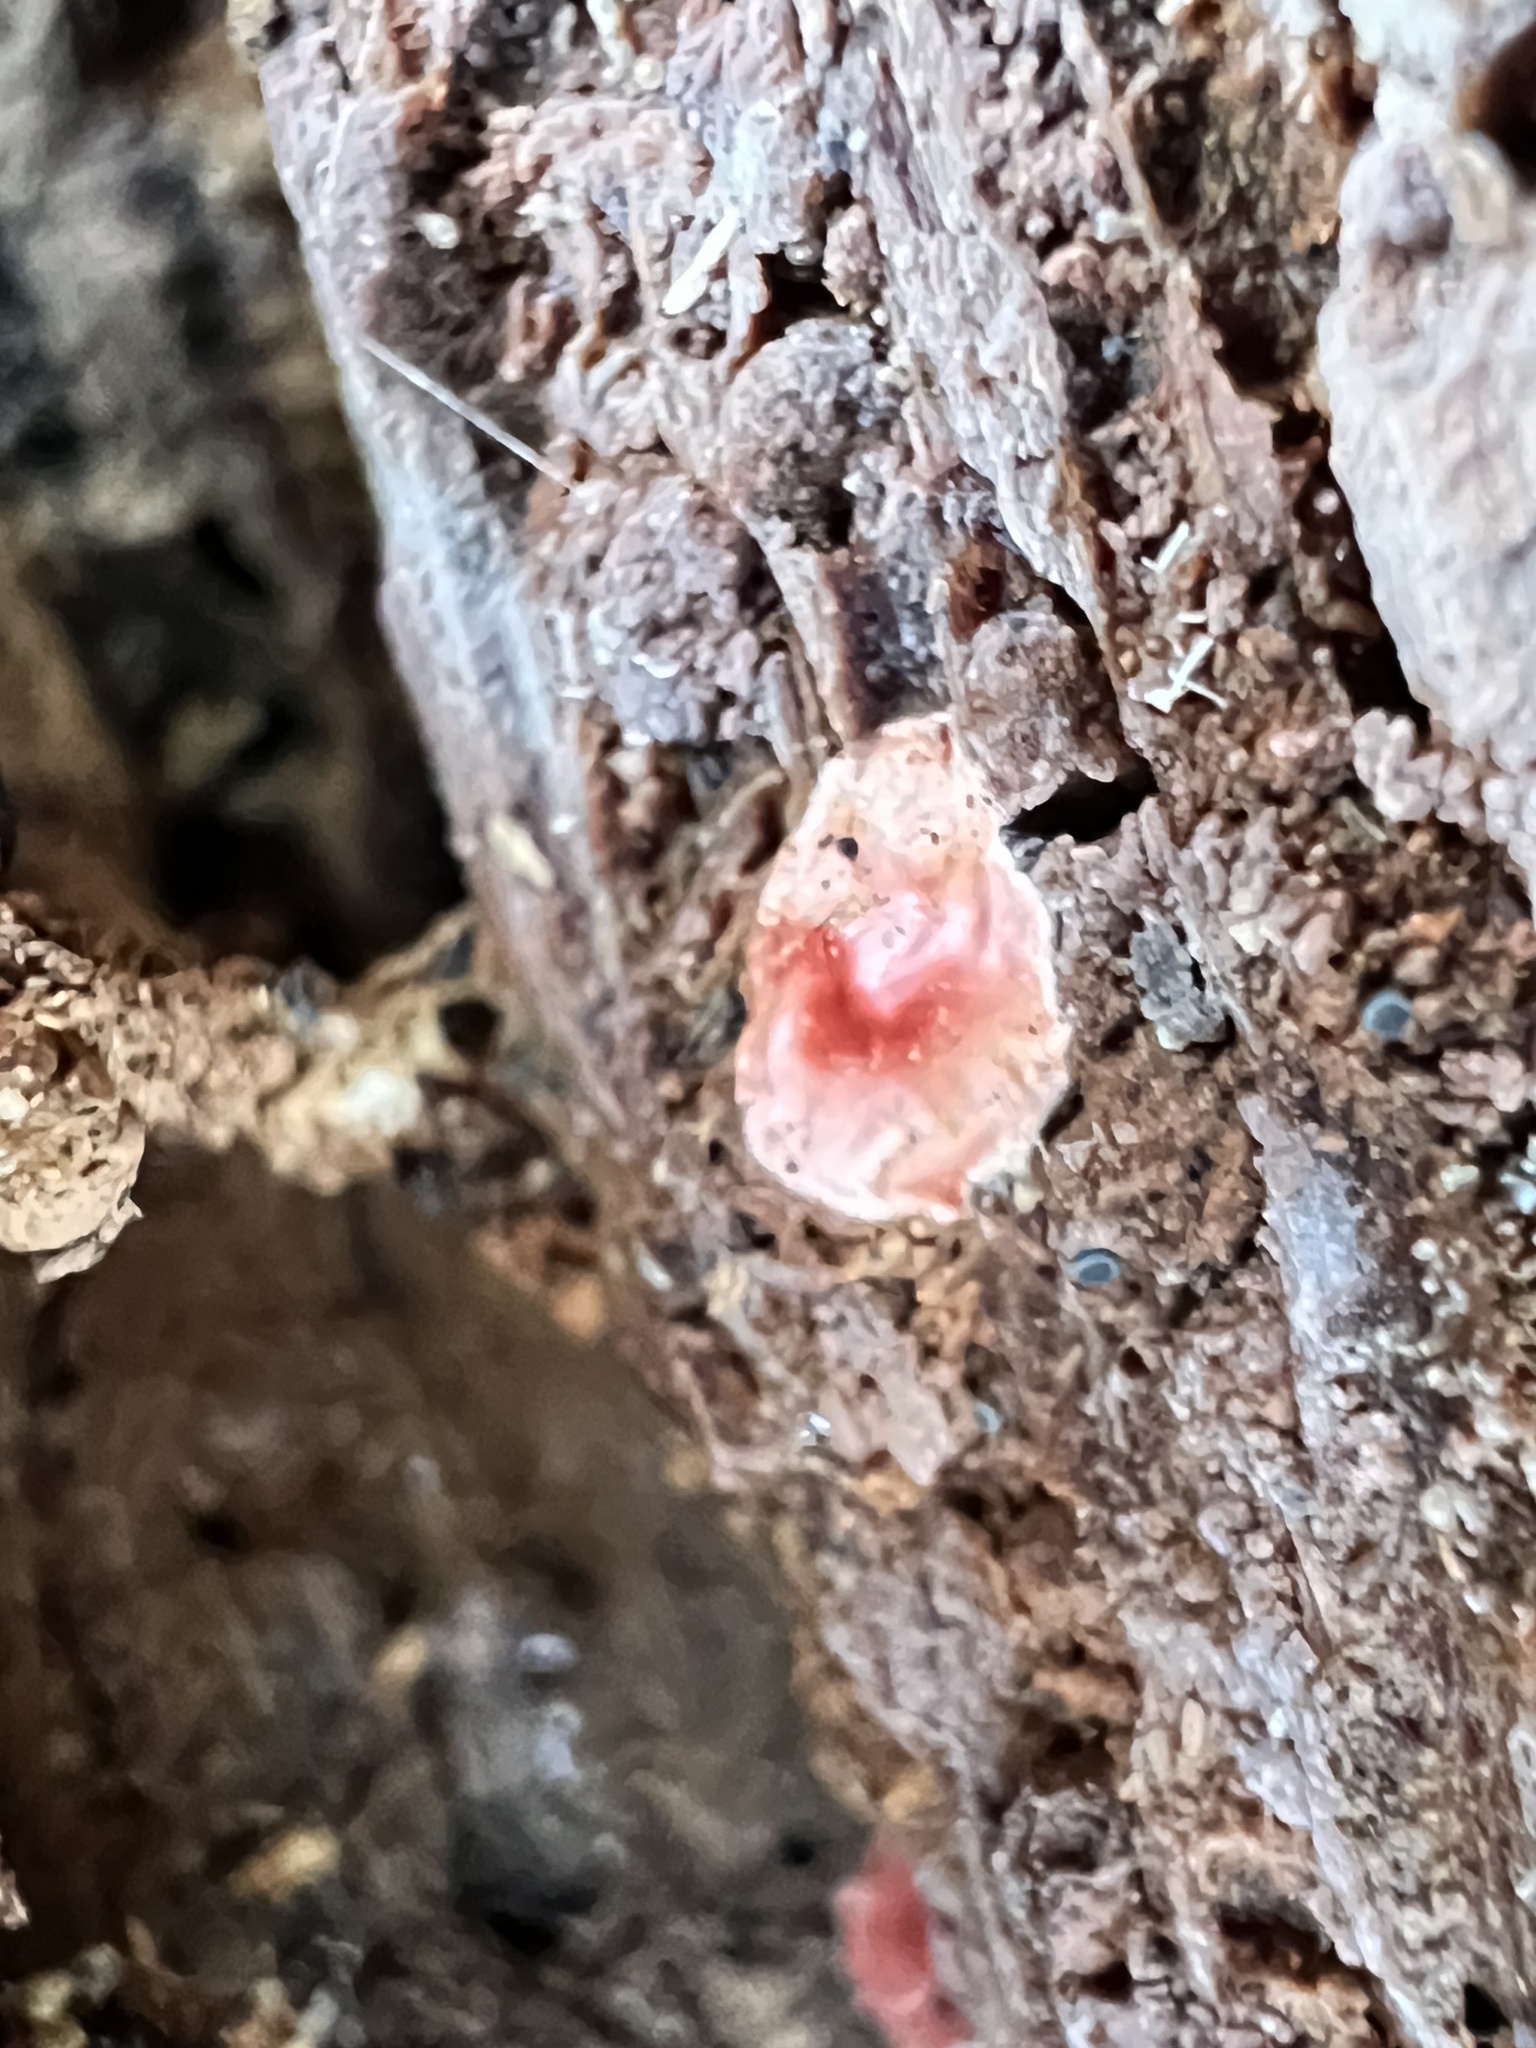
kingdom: Animalia
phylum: Arthropoda
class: Arachnida
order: Araneae
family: Phrurolithidae
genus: Phrurotimpus
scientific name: Phrurotimpus
